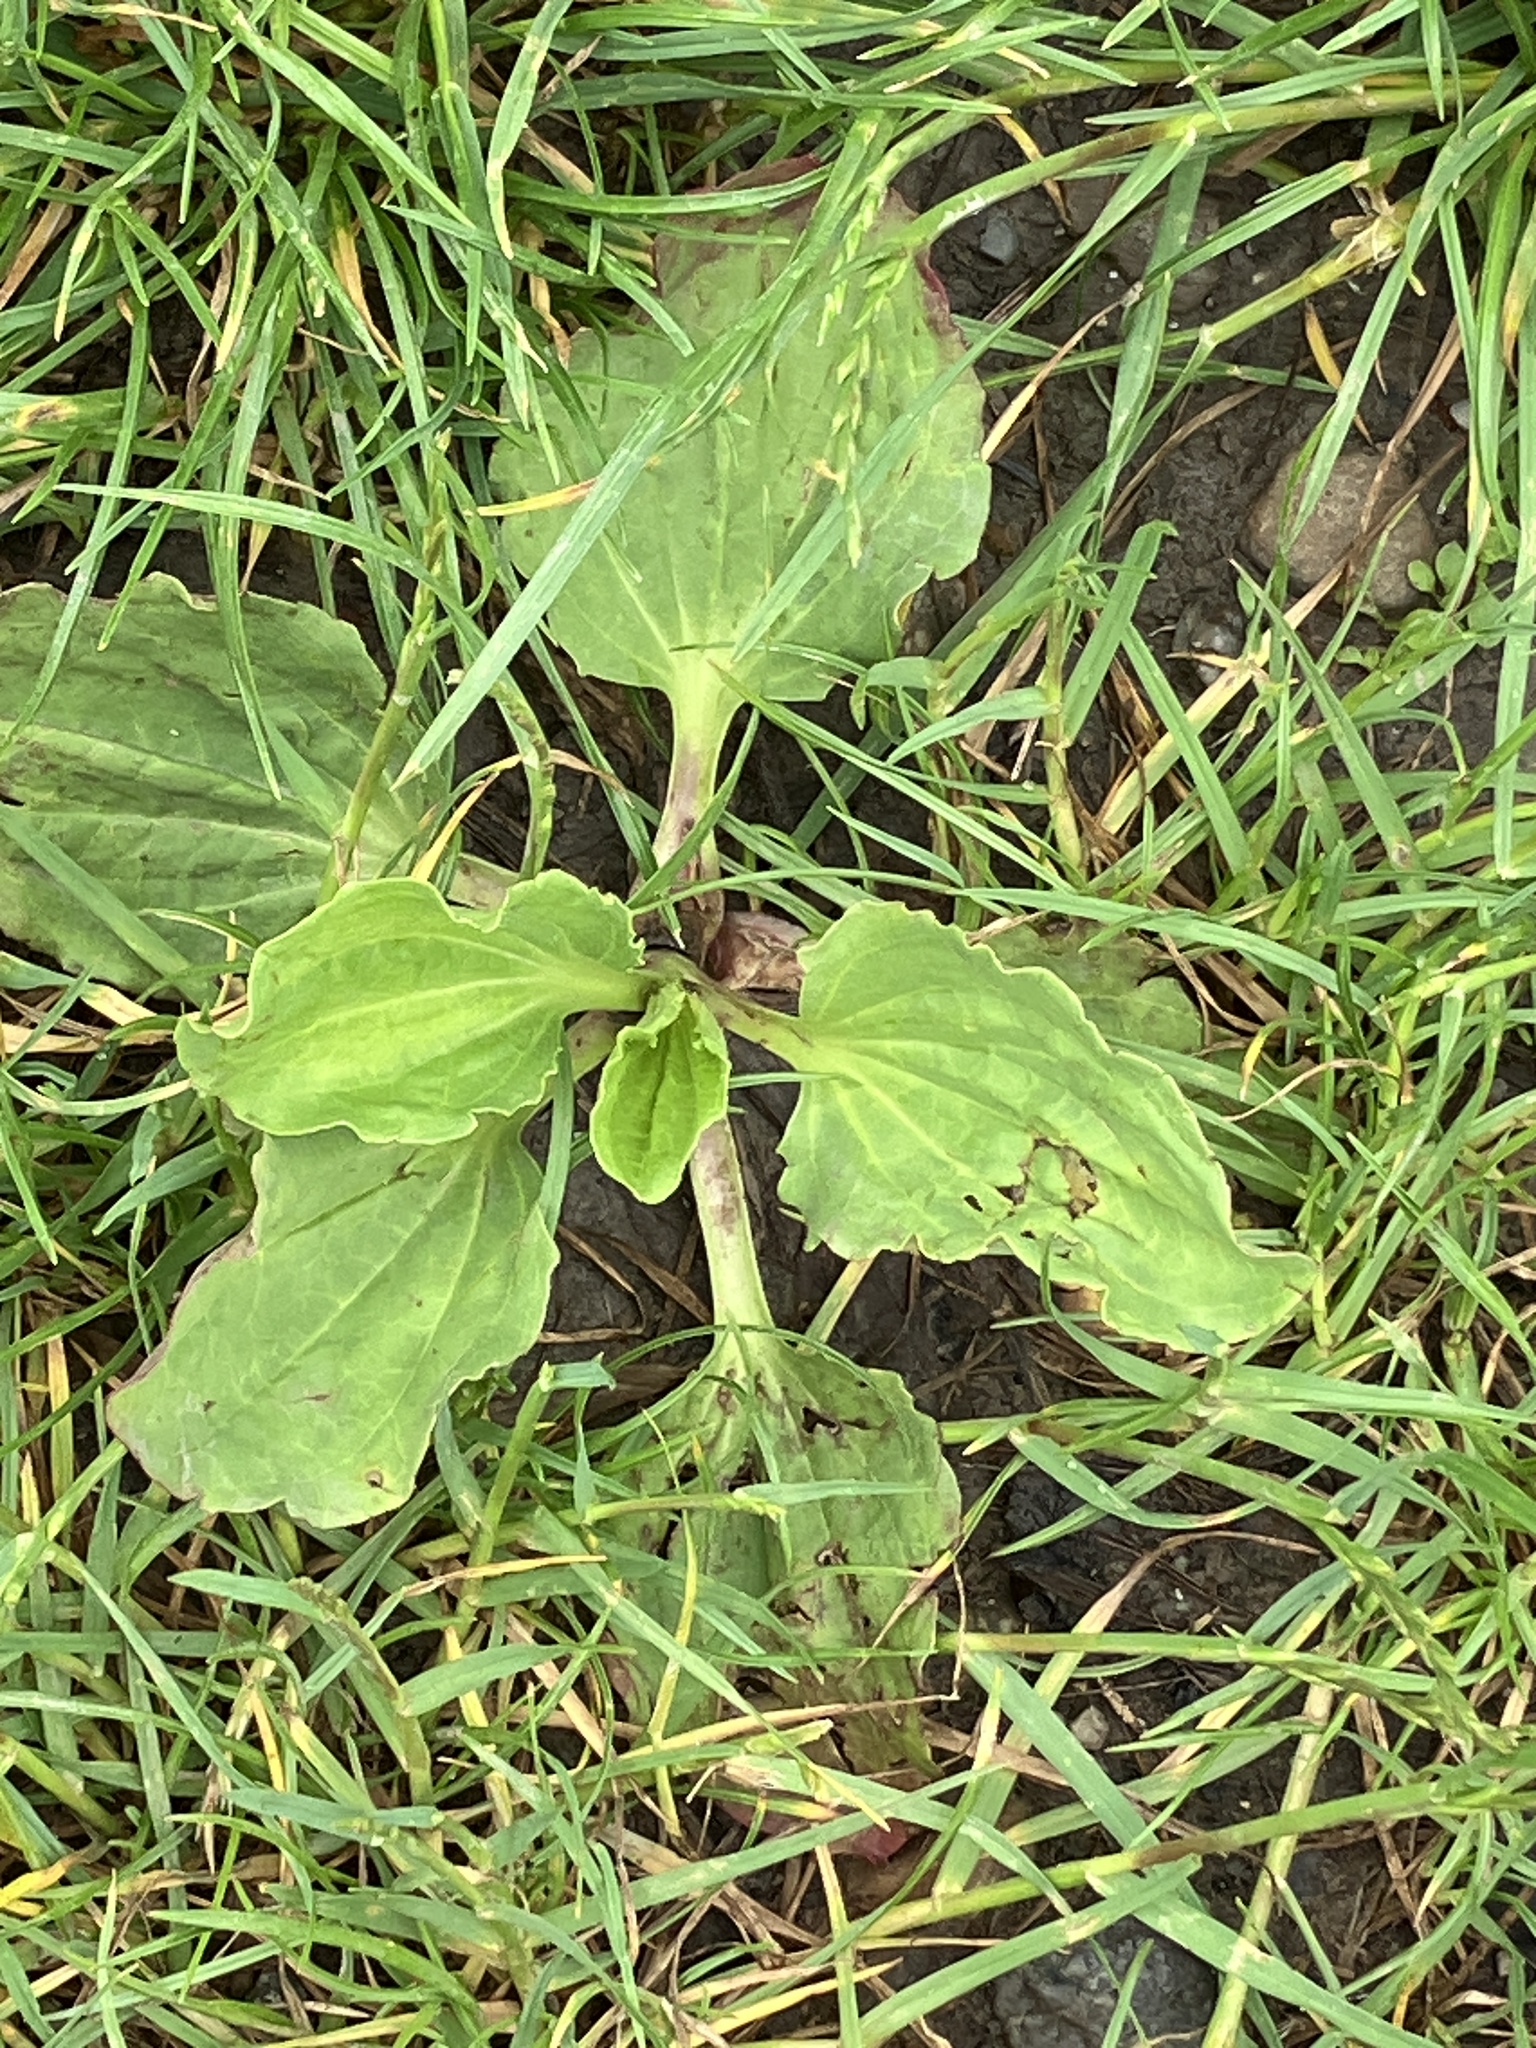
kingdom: Plantae
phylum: Tracheophyta
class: Magnoliopsida
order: Lamiales
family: Plantaginaceae
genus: Plantago
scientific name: Plantago major
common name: Common plantain
